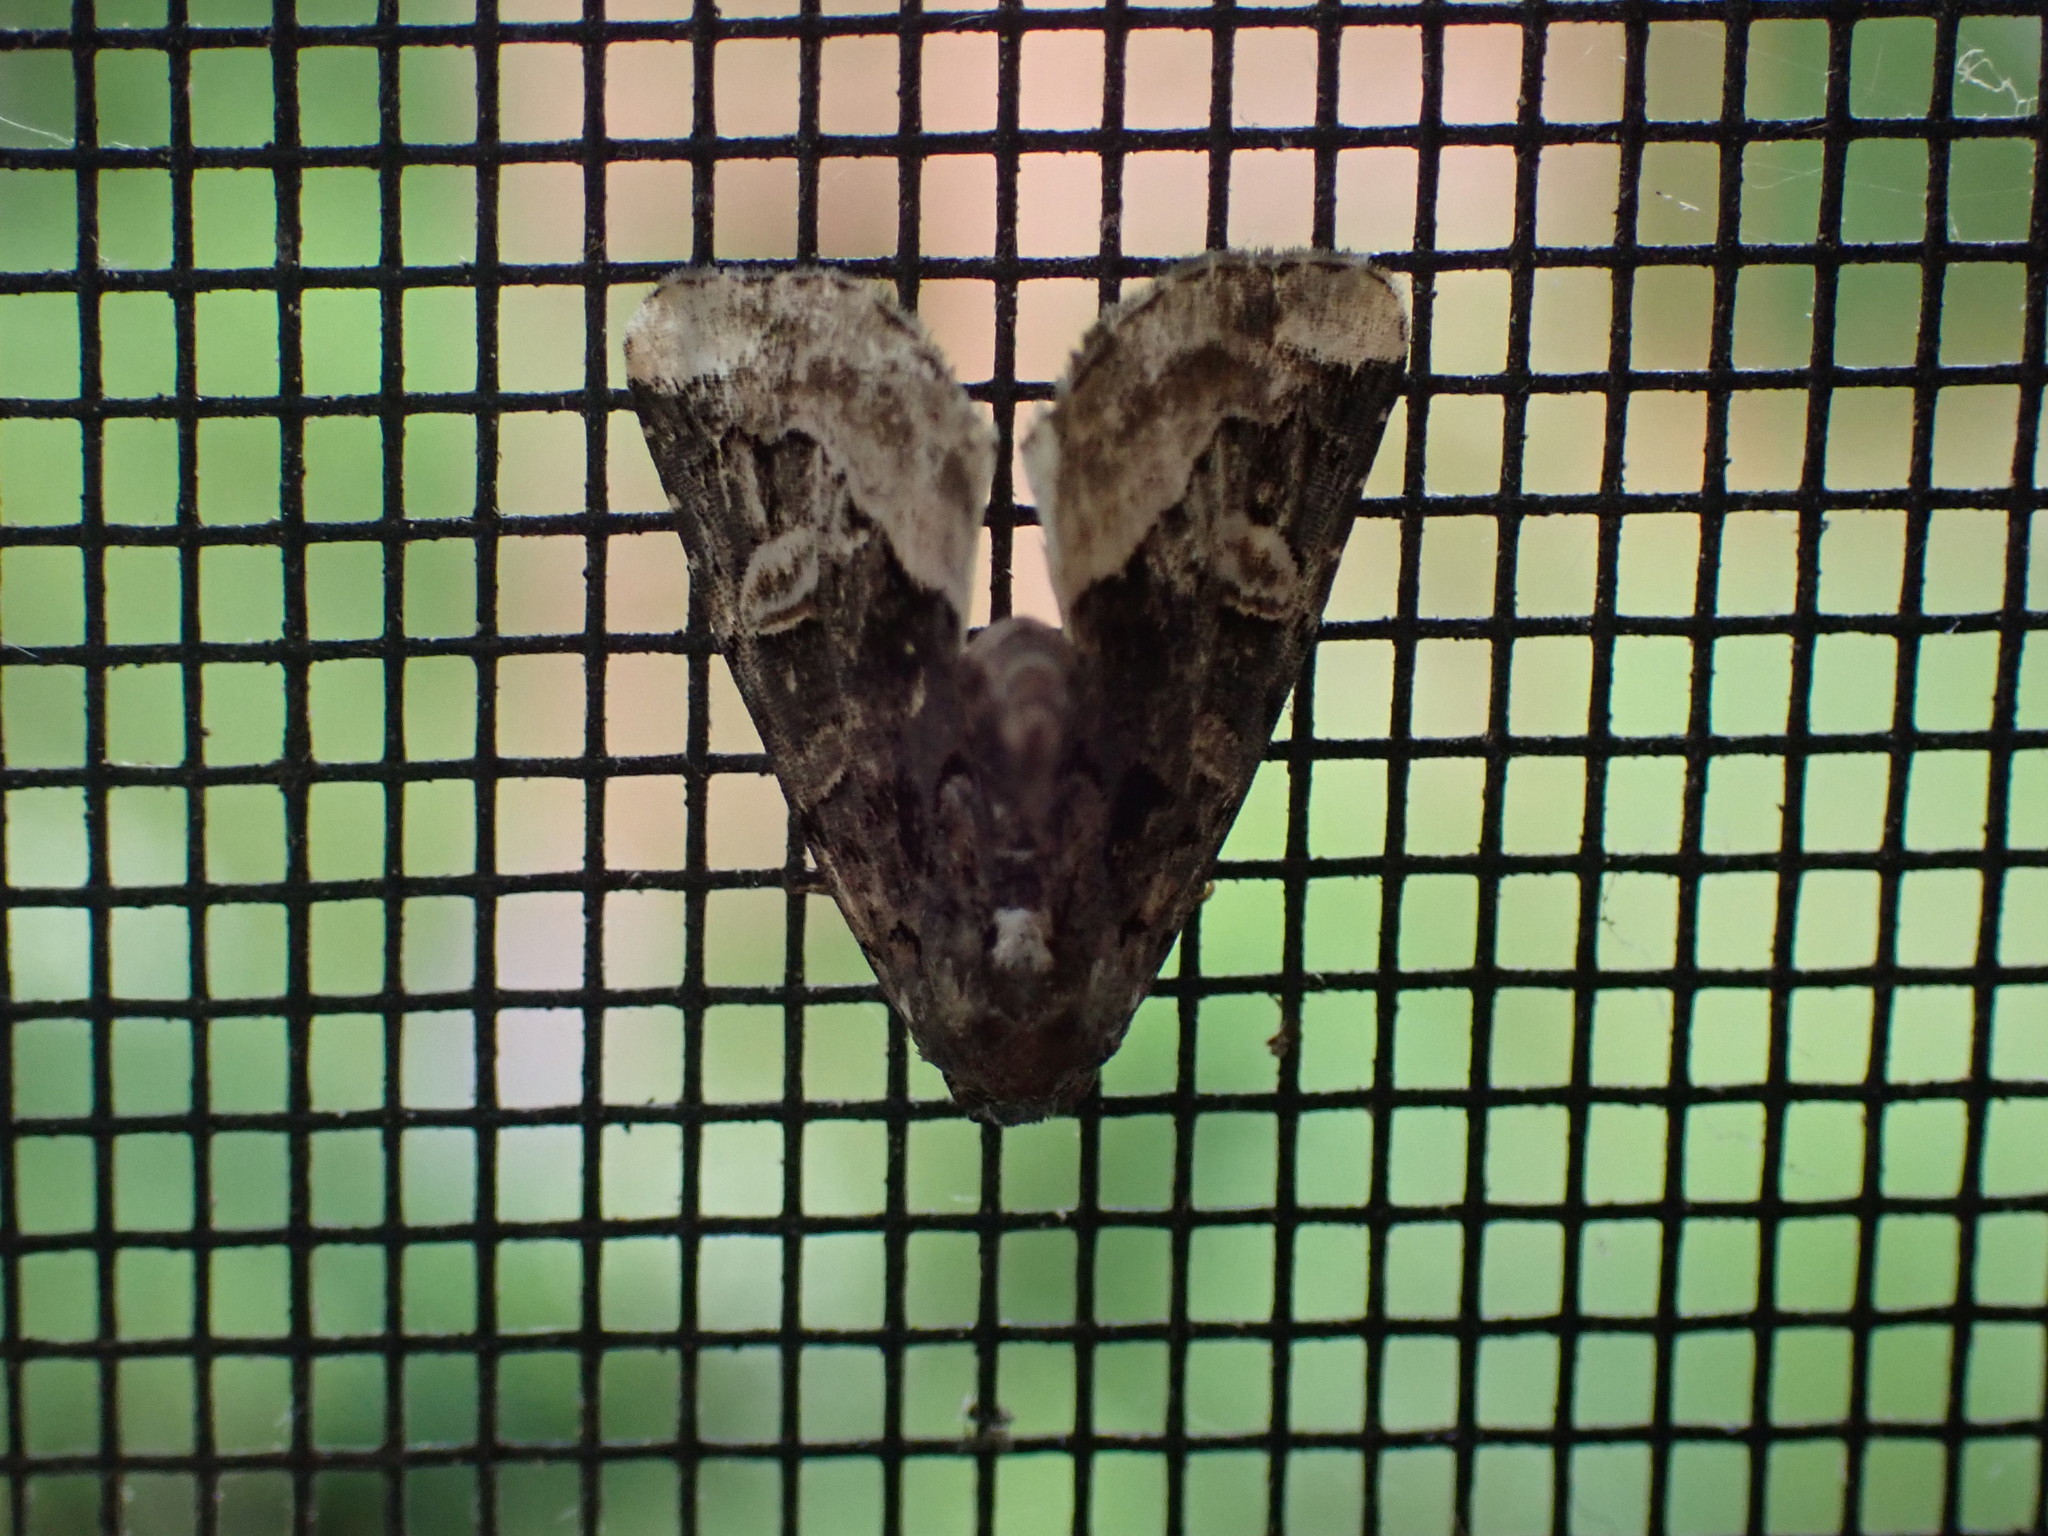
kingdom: Animalia
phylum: Arthropoda
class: Insecta
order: Lepidoptera
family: Noctuidae
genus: Homophoberia
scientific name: Homophoberia apicosa
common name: Black wedge-spot
